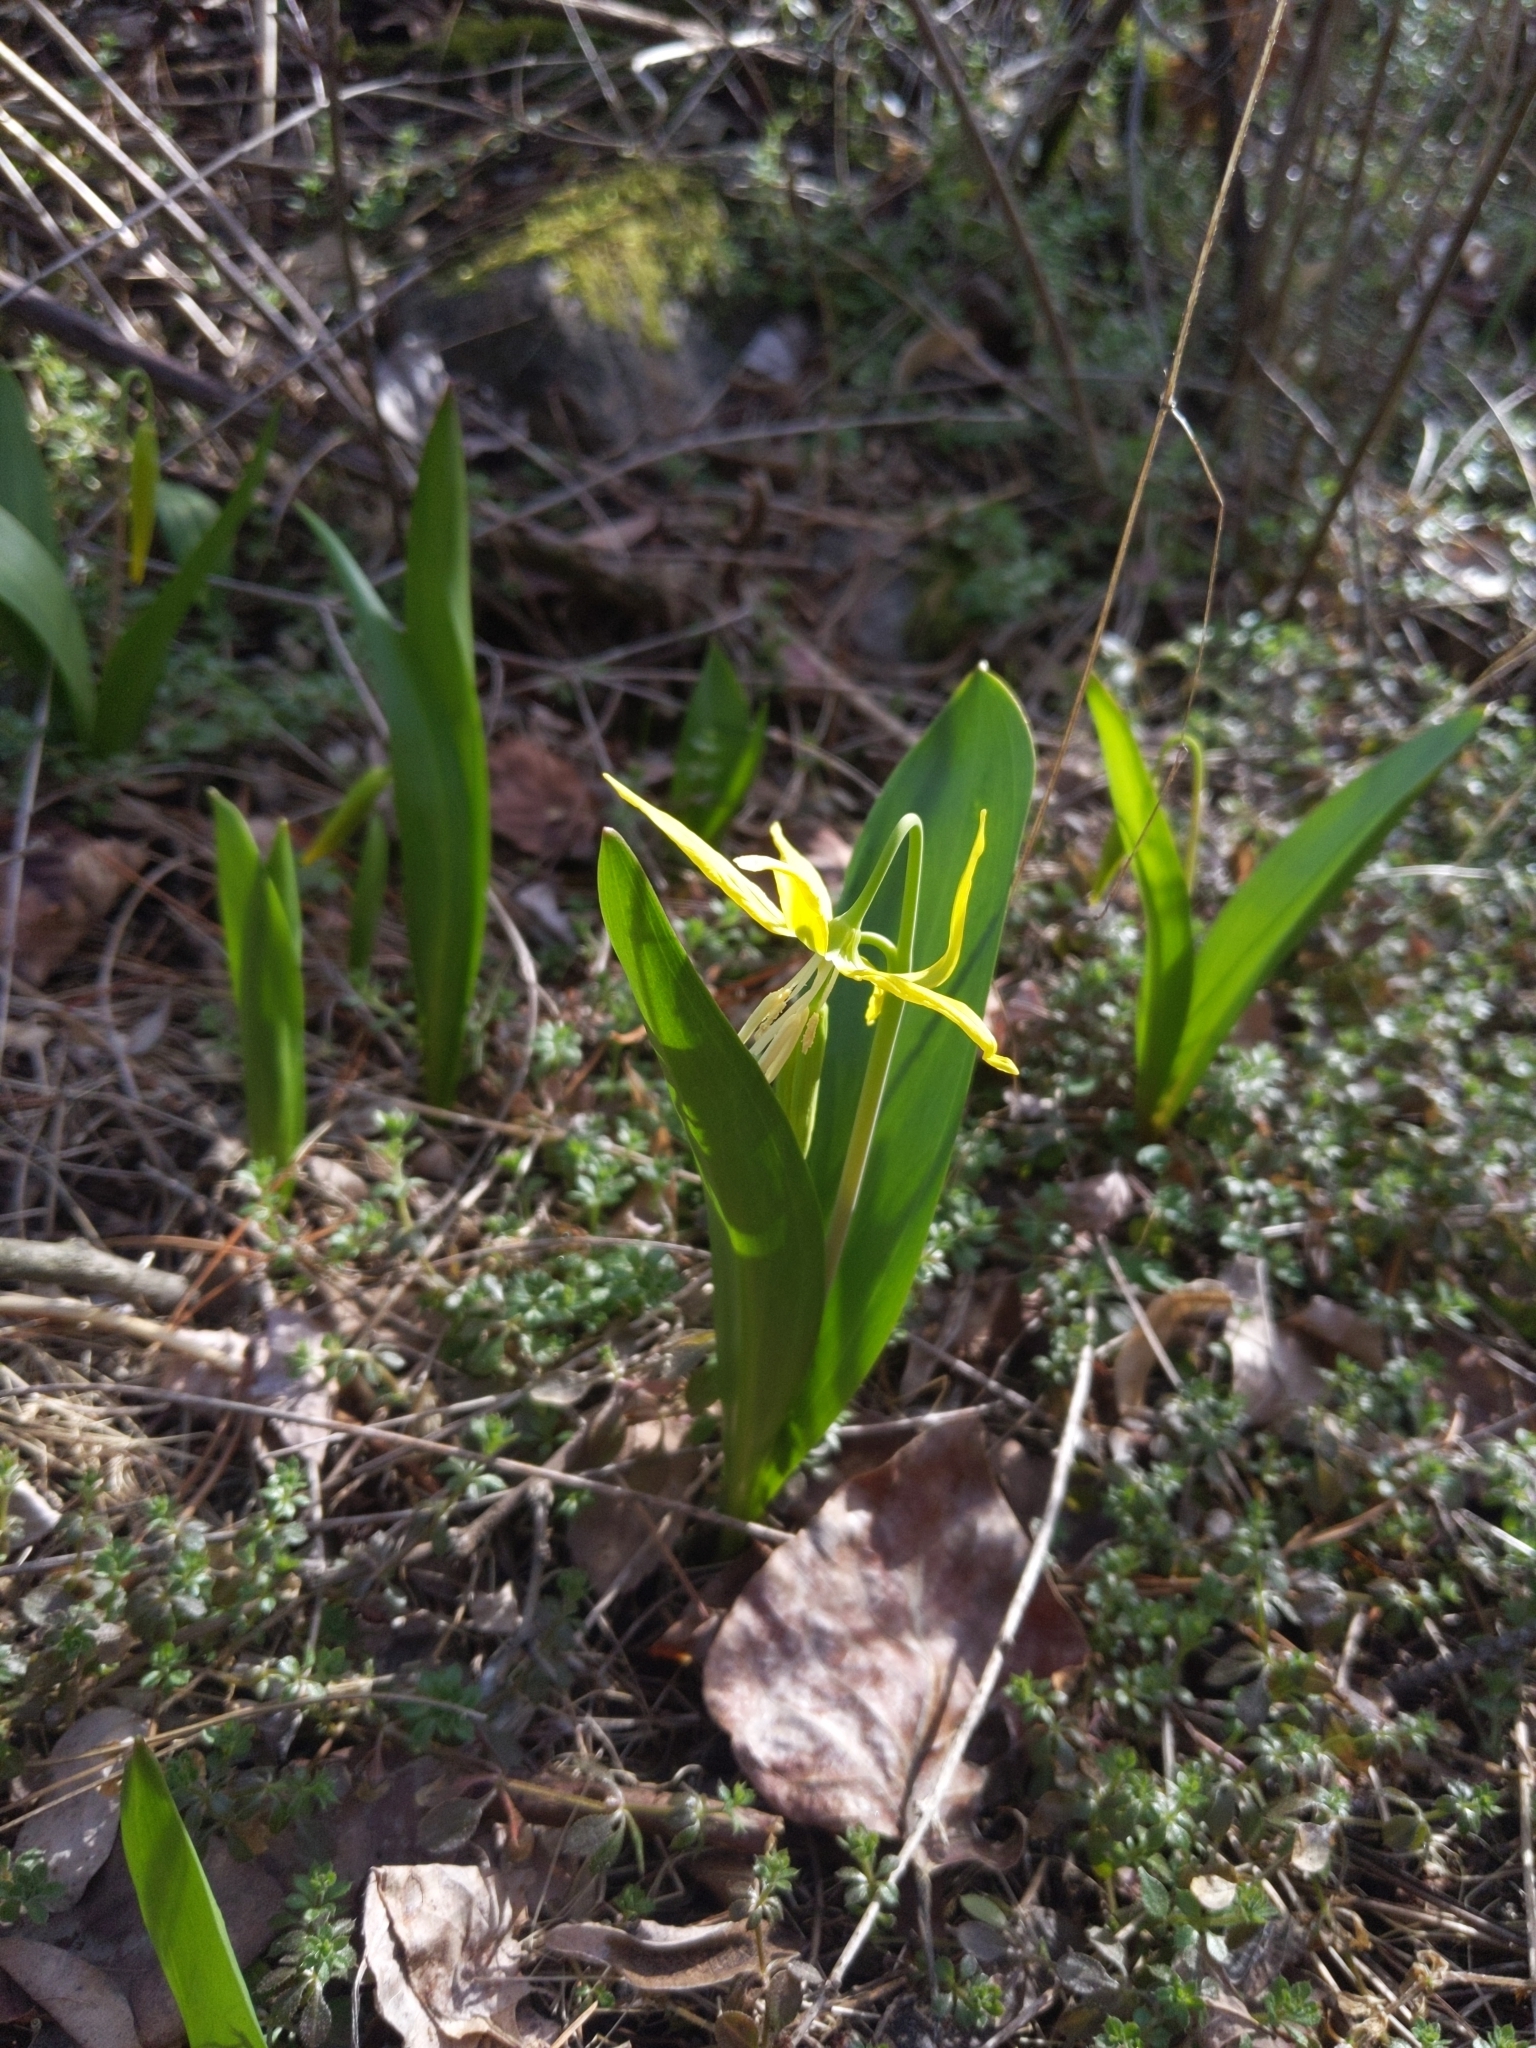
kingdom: Plantae
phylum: Tracheophyta
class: Liliopsida
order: Liliales
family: Liliaceae
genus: Erythronium
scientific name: Erythronium grandiflorum
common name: Avalanche-lily
